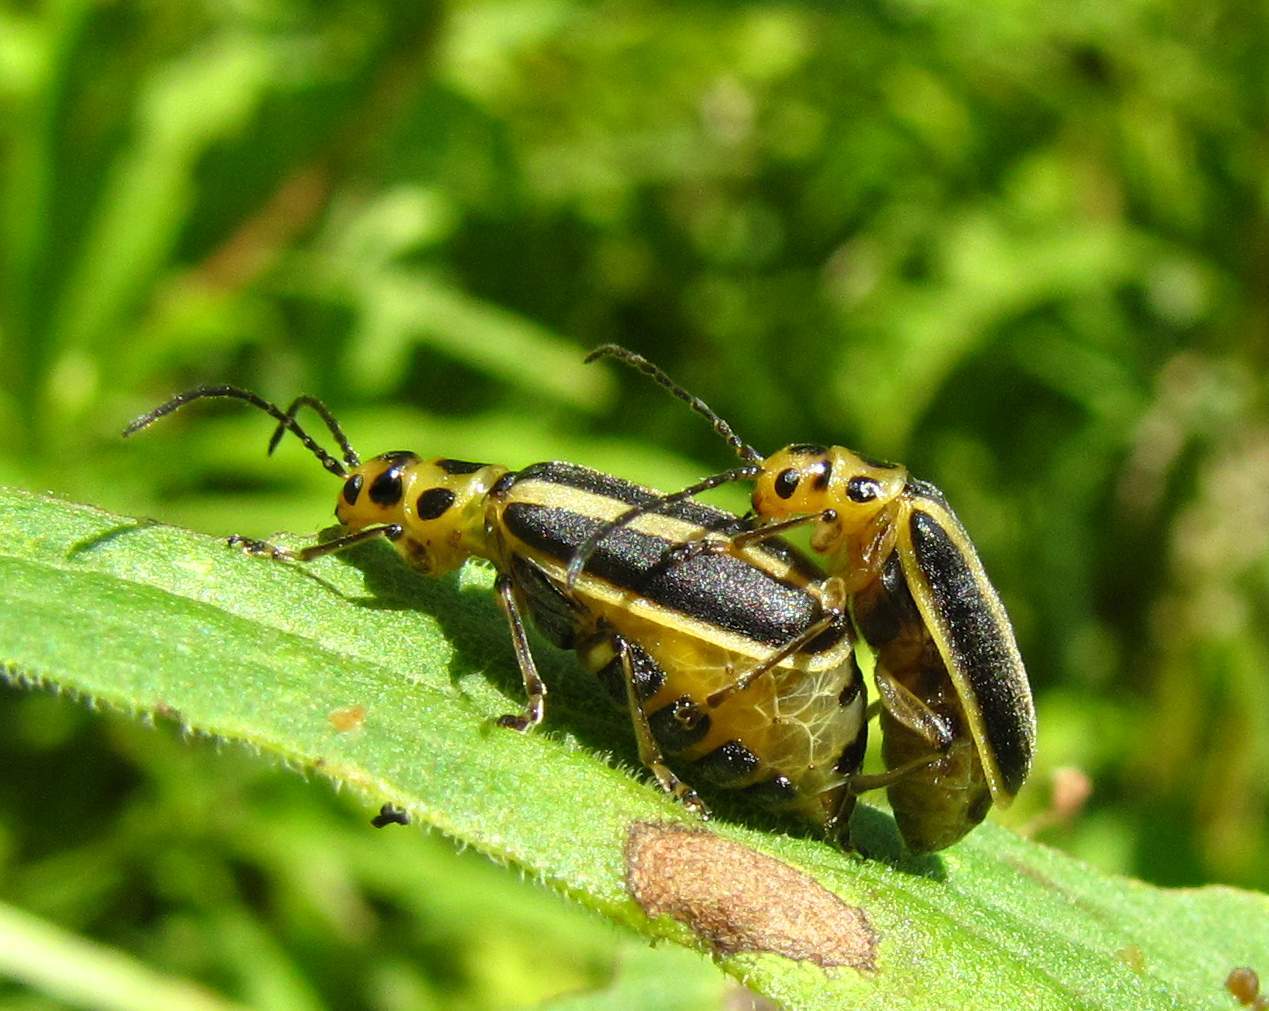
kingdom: Animalia
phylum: Arthropoda
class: Insecta
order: Coleoptera
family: Chrysomelidae
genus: Trirhabda
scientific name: Trirhabda canadensis
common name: Goldenrod leaf beetle
